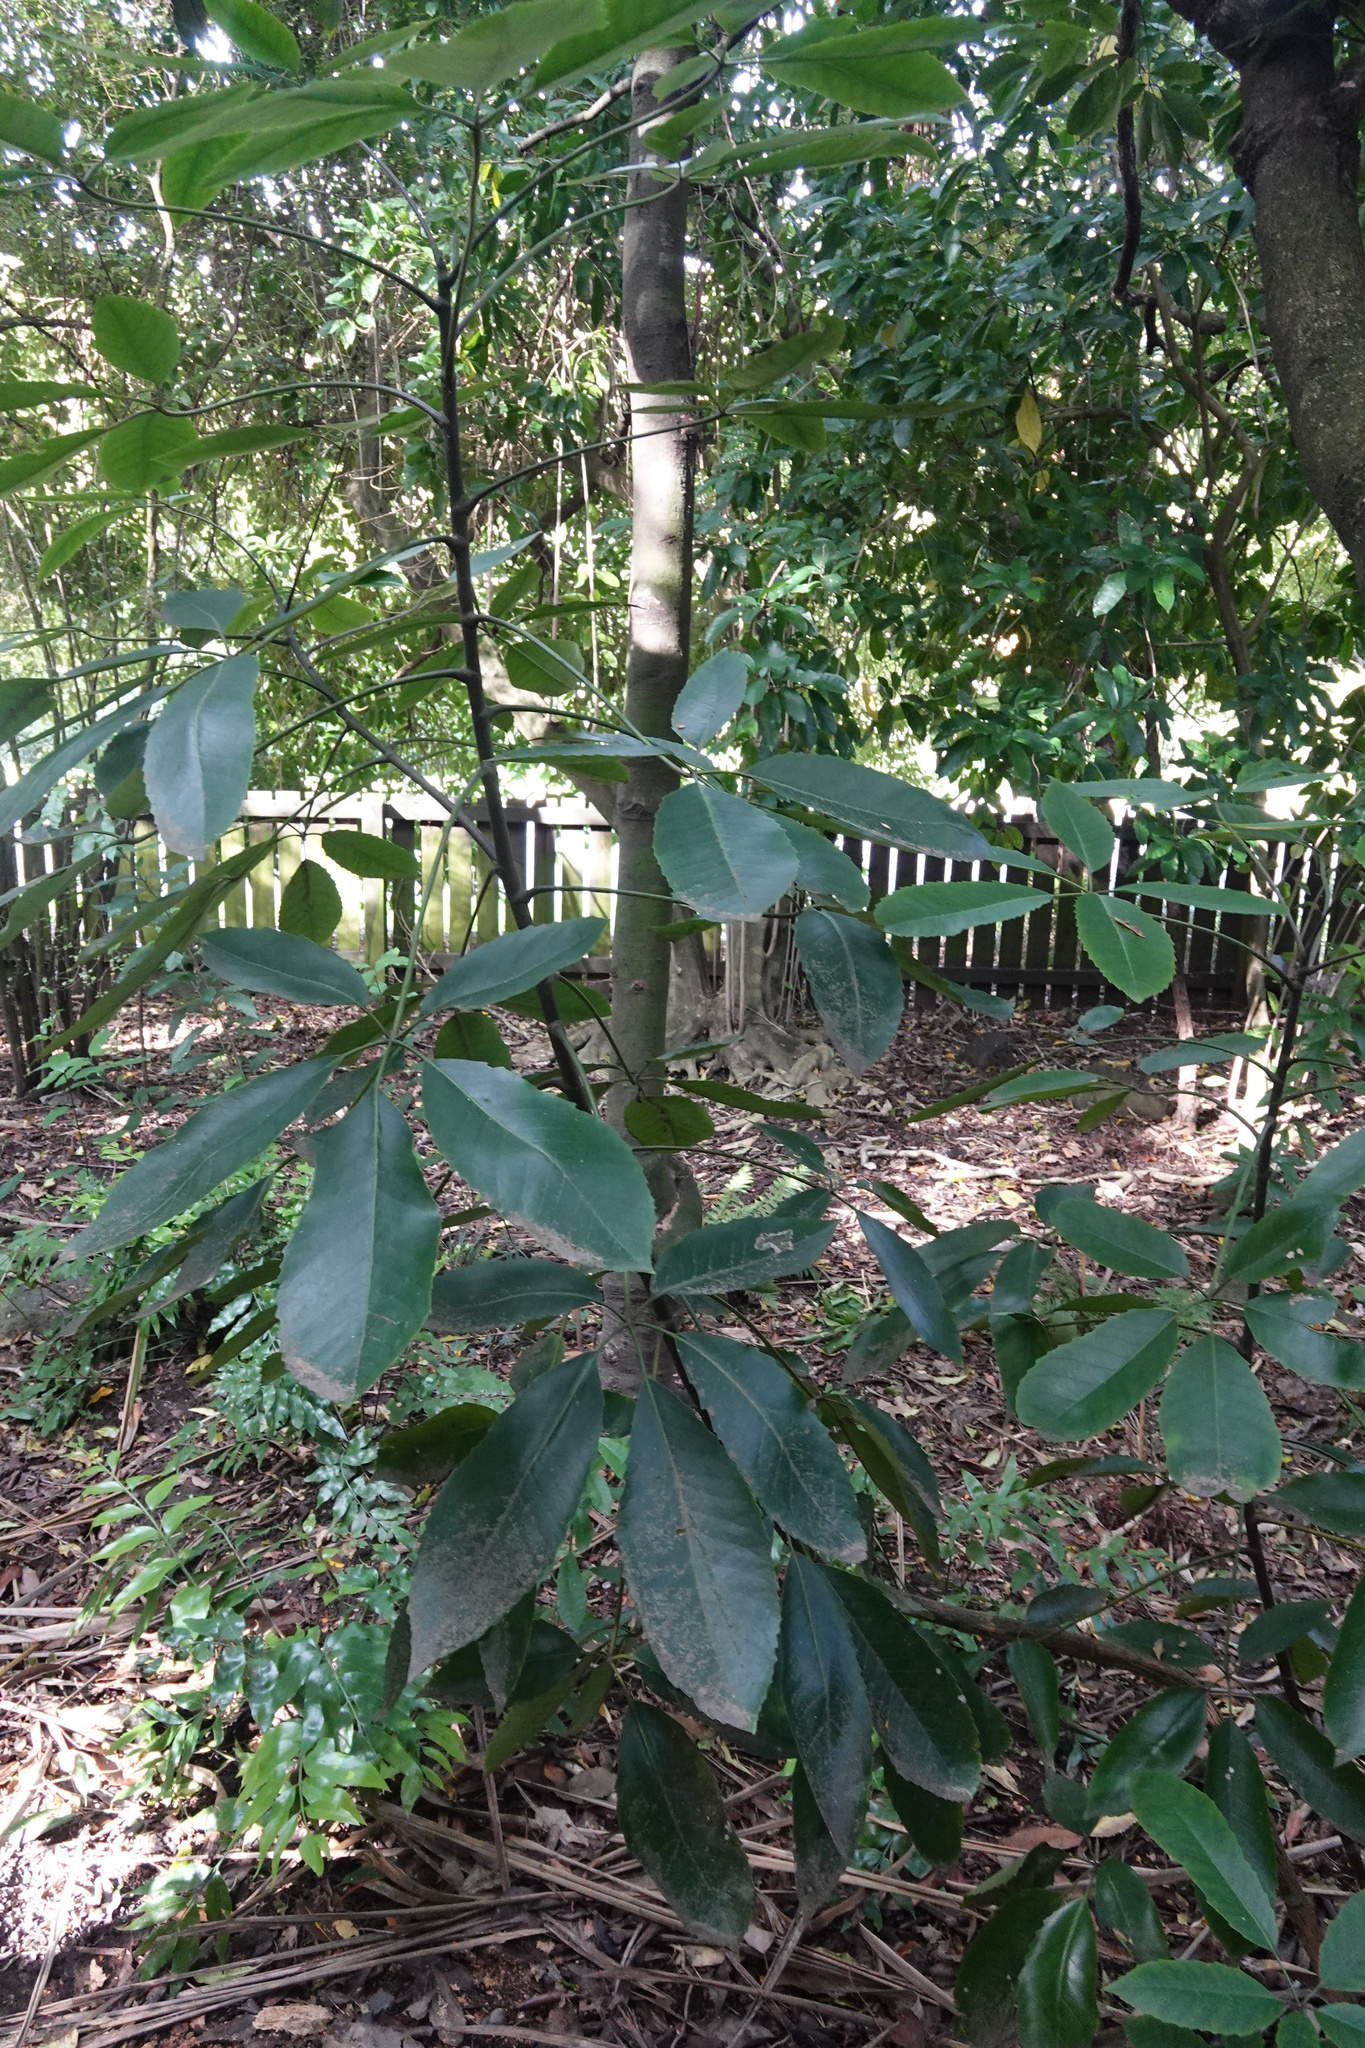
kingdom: Plantae
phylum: Tracheophyta
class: Magnoliopsida
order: Apiales
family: Araliaceae
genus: Neopanax
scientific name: Neopanax arboreus
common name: Five-fingers
